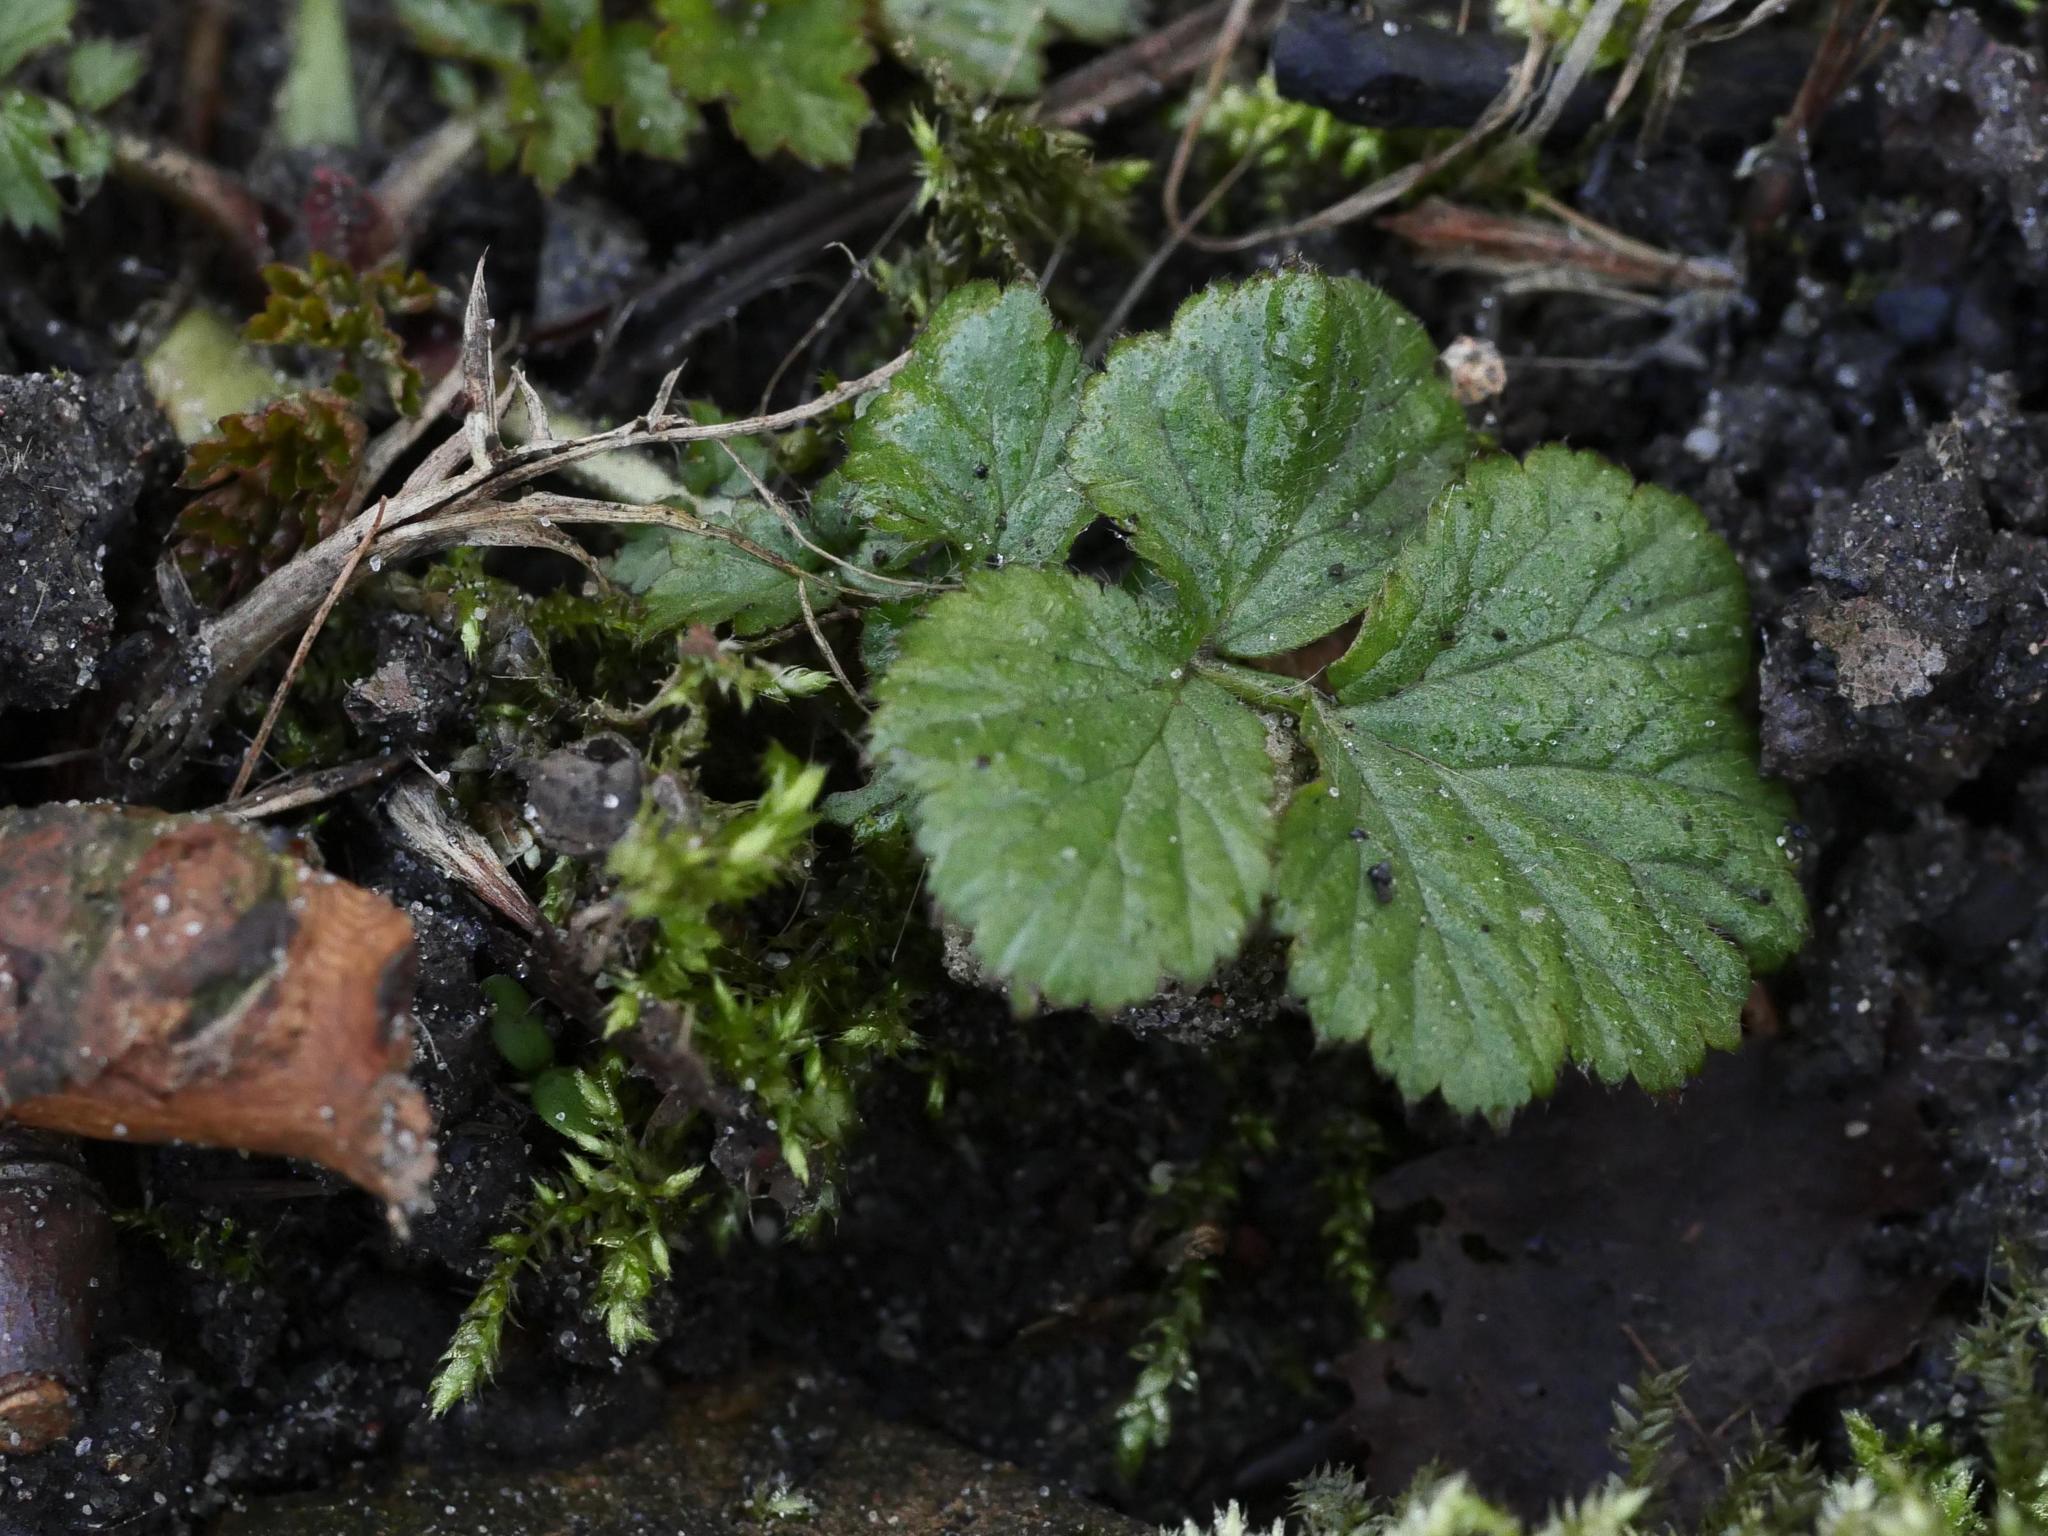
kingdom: Plantae
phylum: Tracheophyta
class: Magnoliopsida
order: Rosales
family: Rosaceae
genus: Geum
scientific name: Geum urbanum
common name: Wood avens
